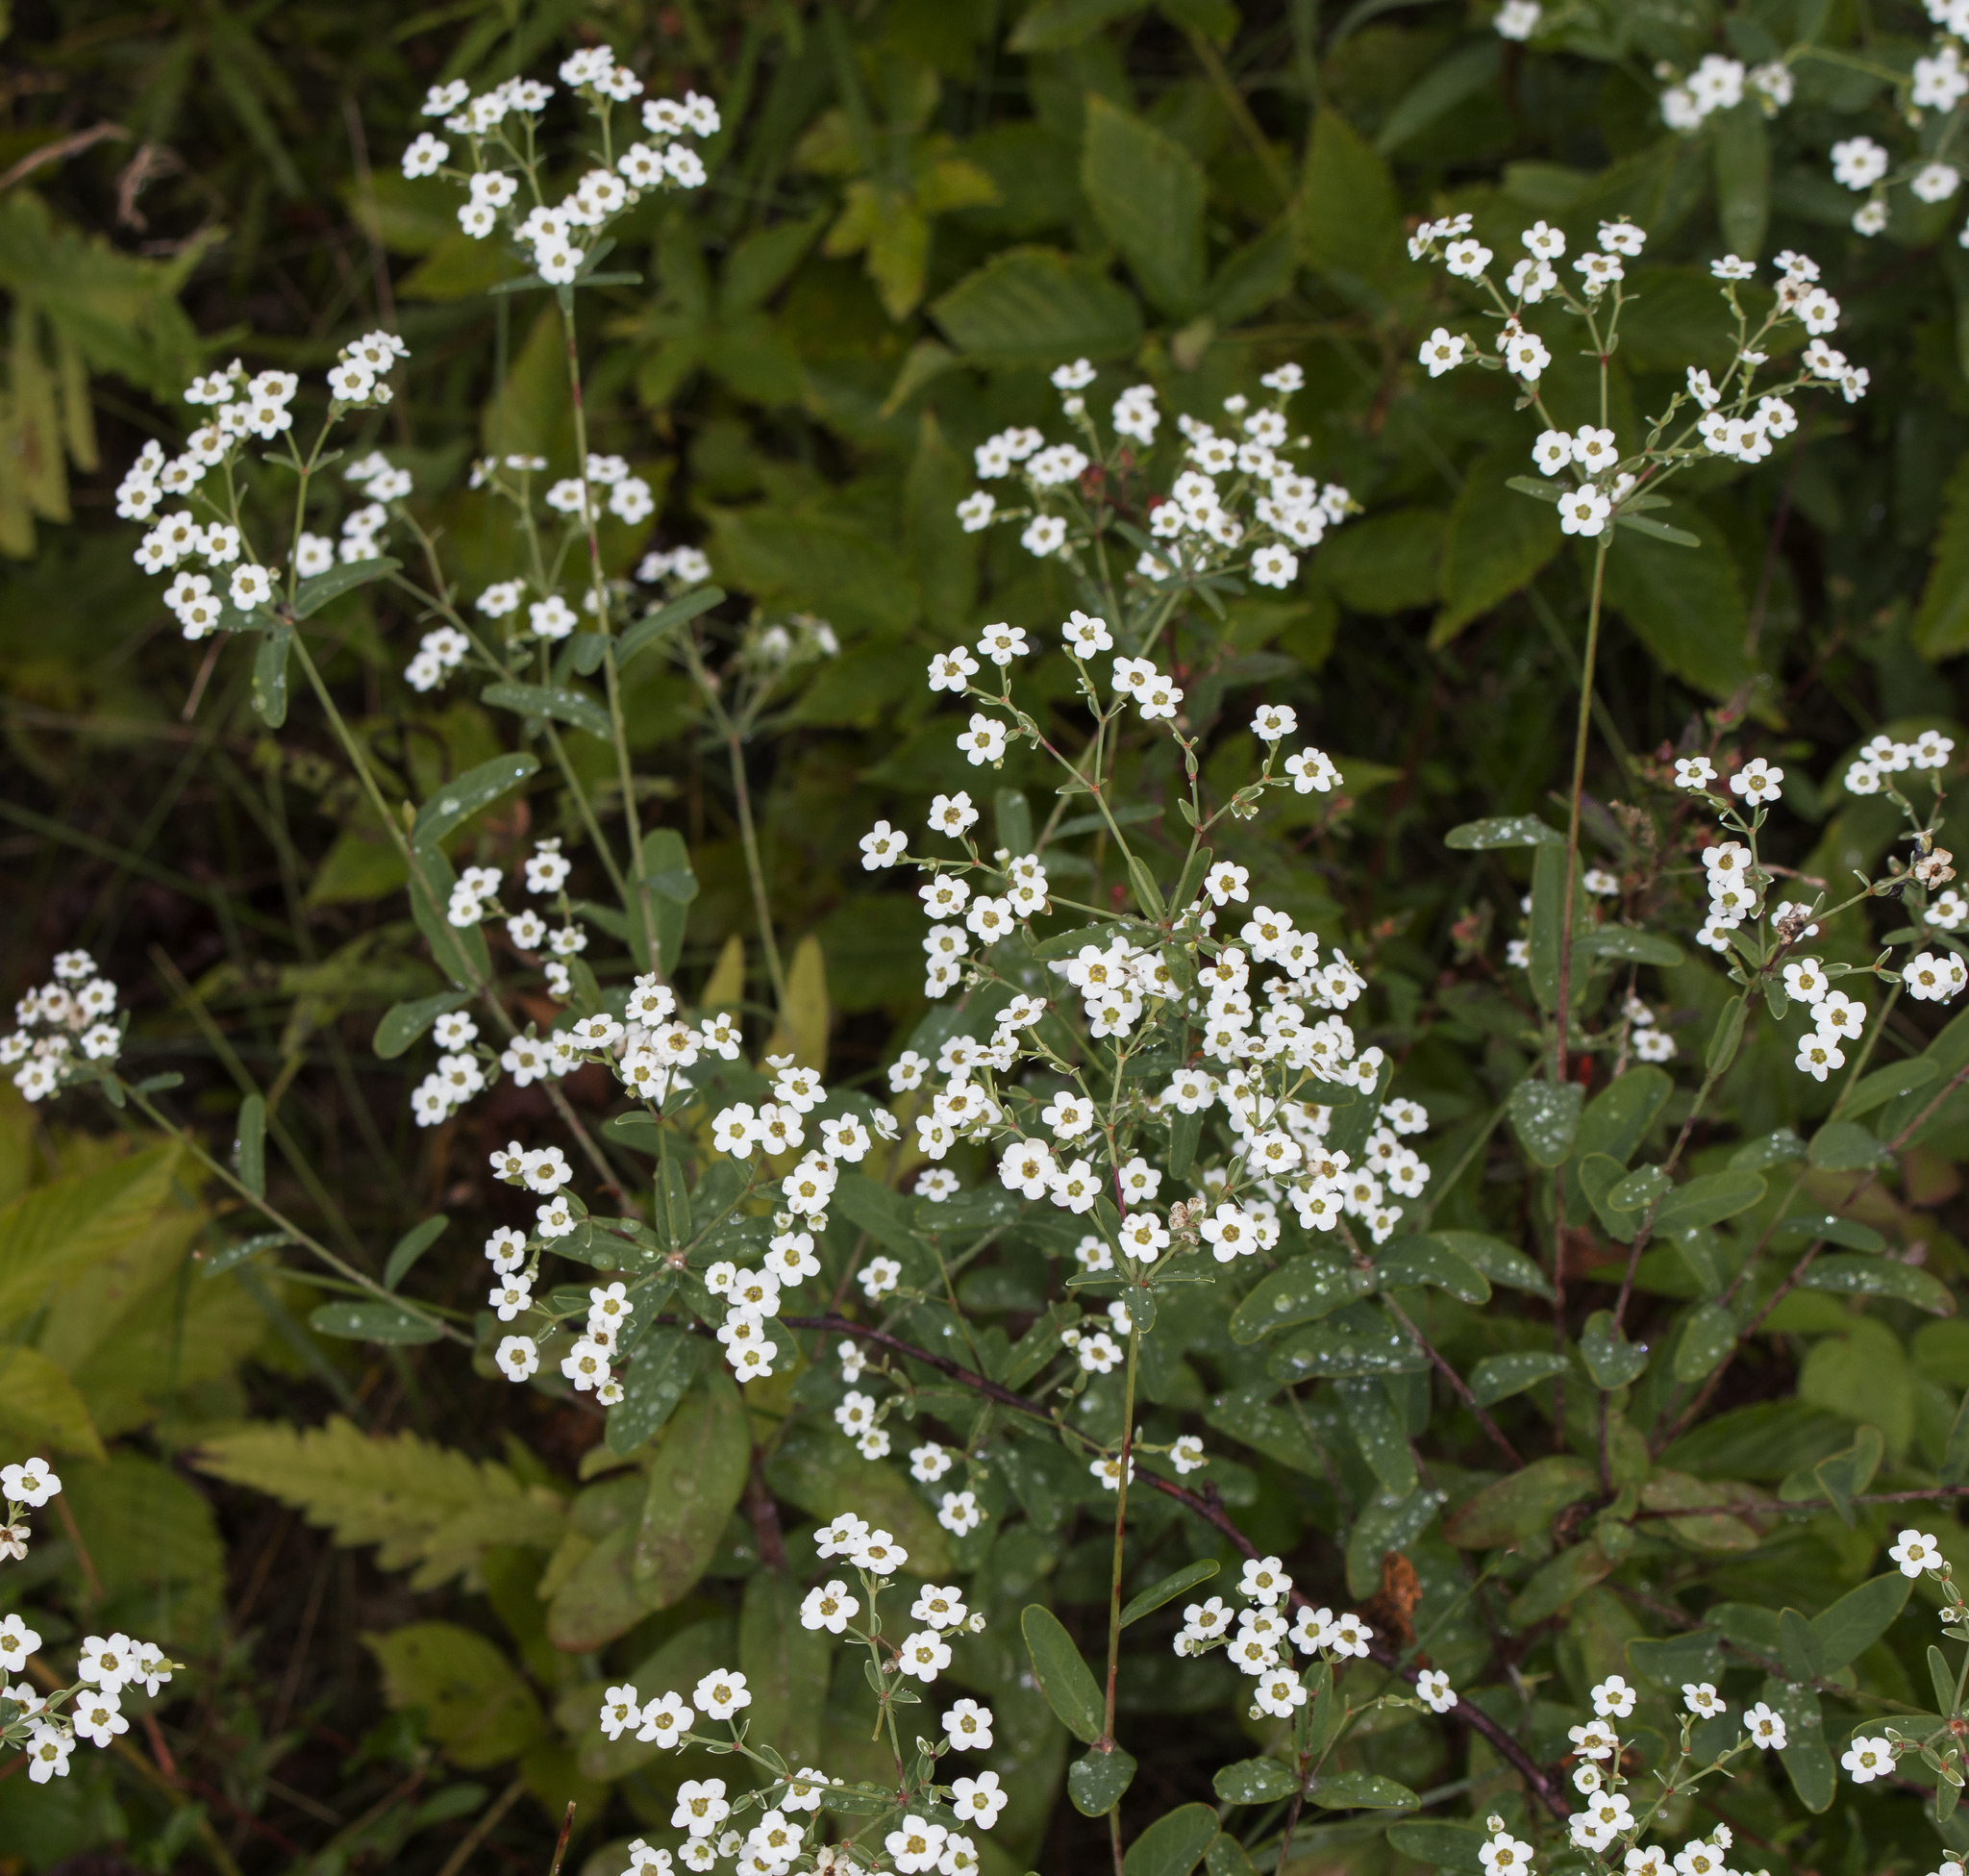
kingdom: Plantae
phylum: Tracheophyta
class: Magnoliopsida
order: Malpighiales
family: Euphorbiaceae
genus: Euphorbia
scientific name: Euphorbia corollata
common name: Flowering spurge
